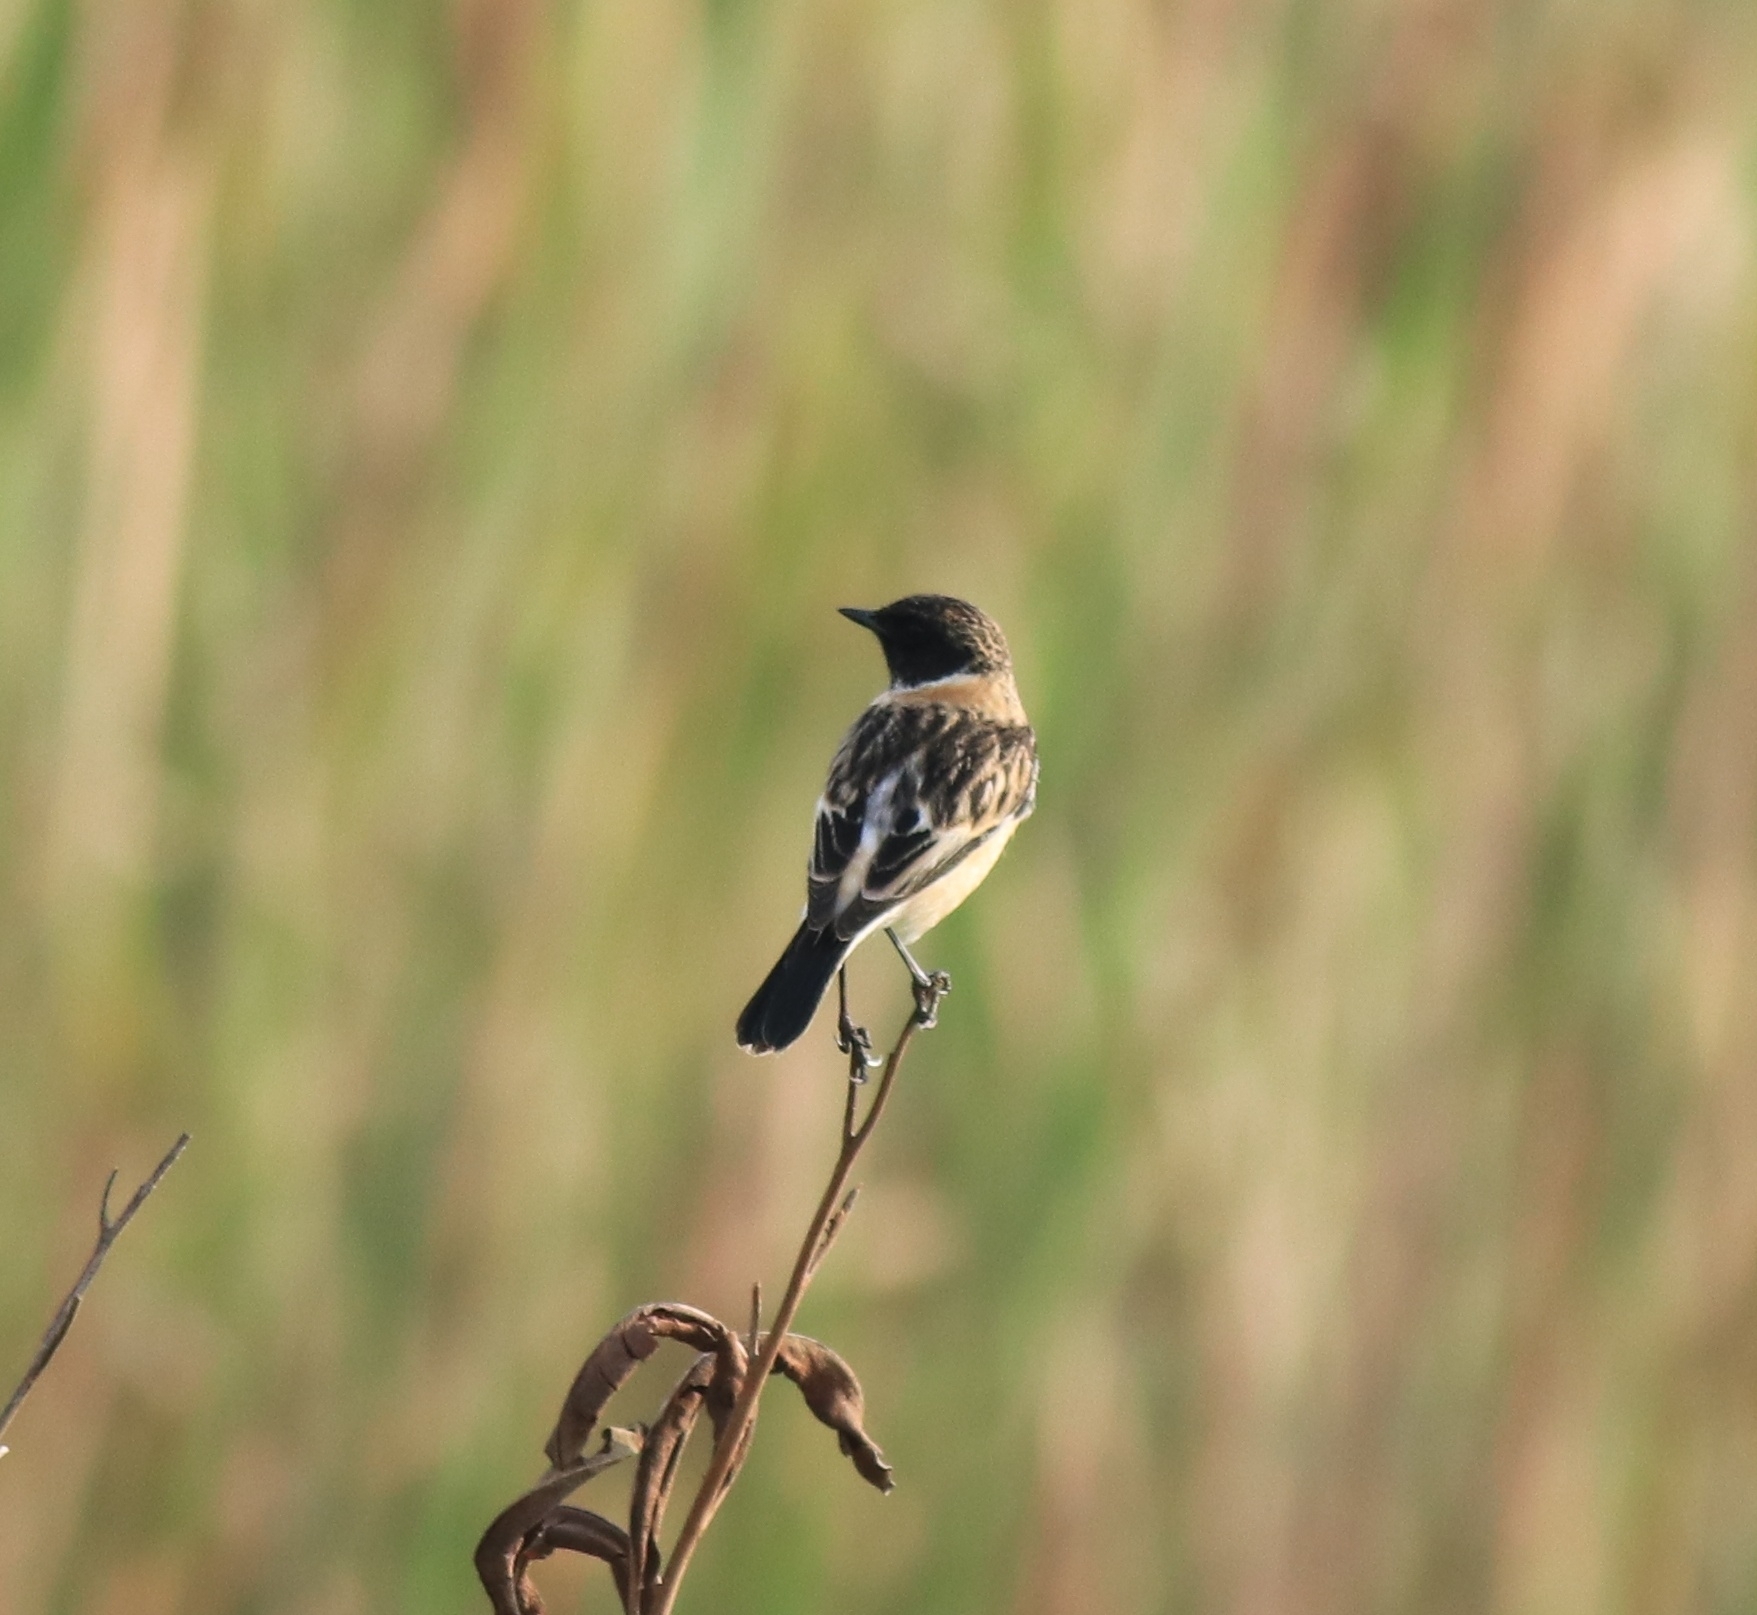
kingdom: Animalia
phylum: Chordata
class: Aves
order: Passeriformes
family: Muscicapidae
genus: Saxicola
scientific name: Saxicola maurus
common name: Siberian stonechat
